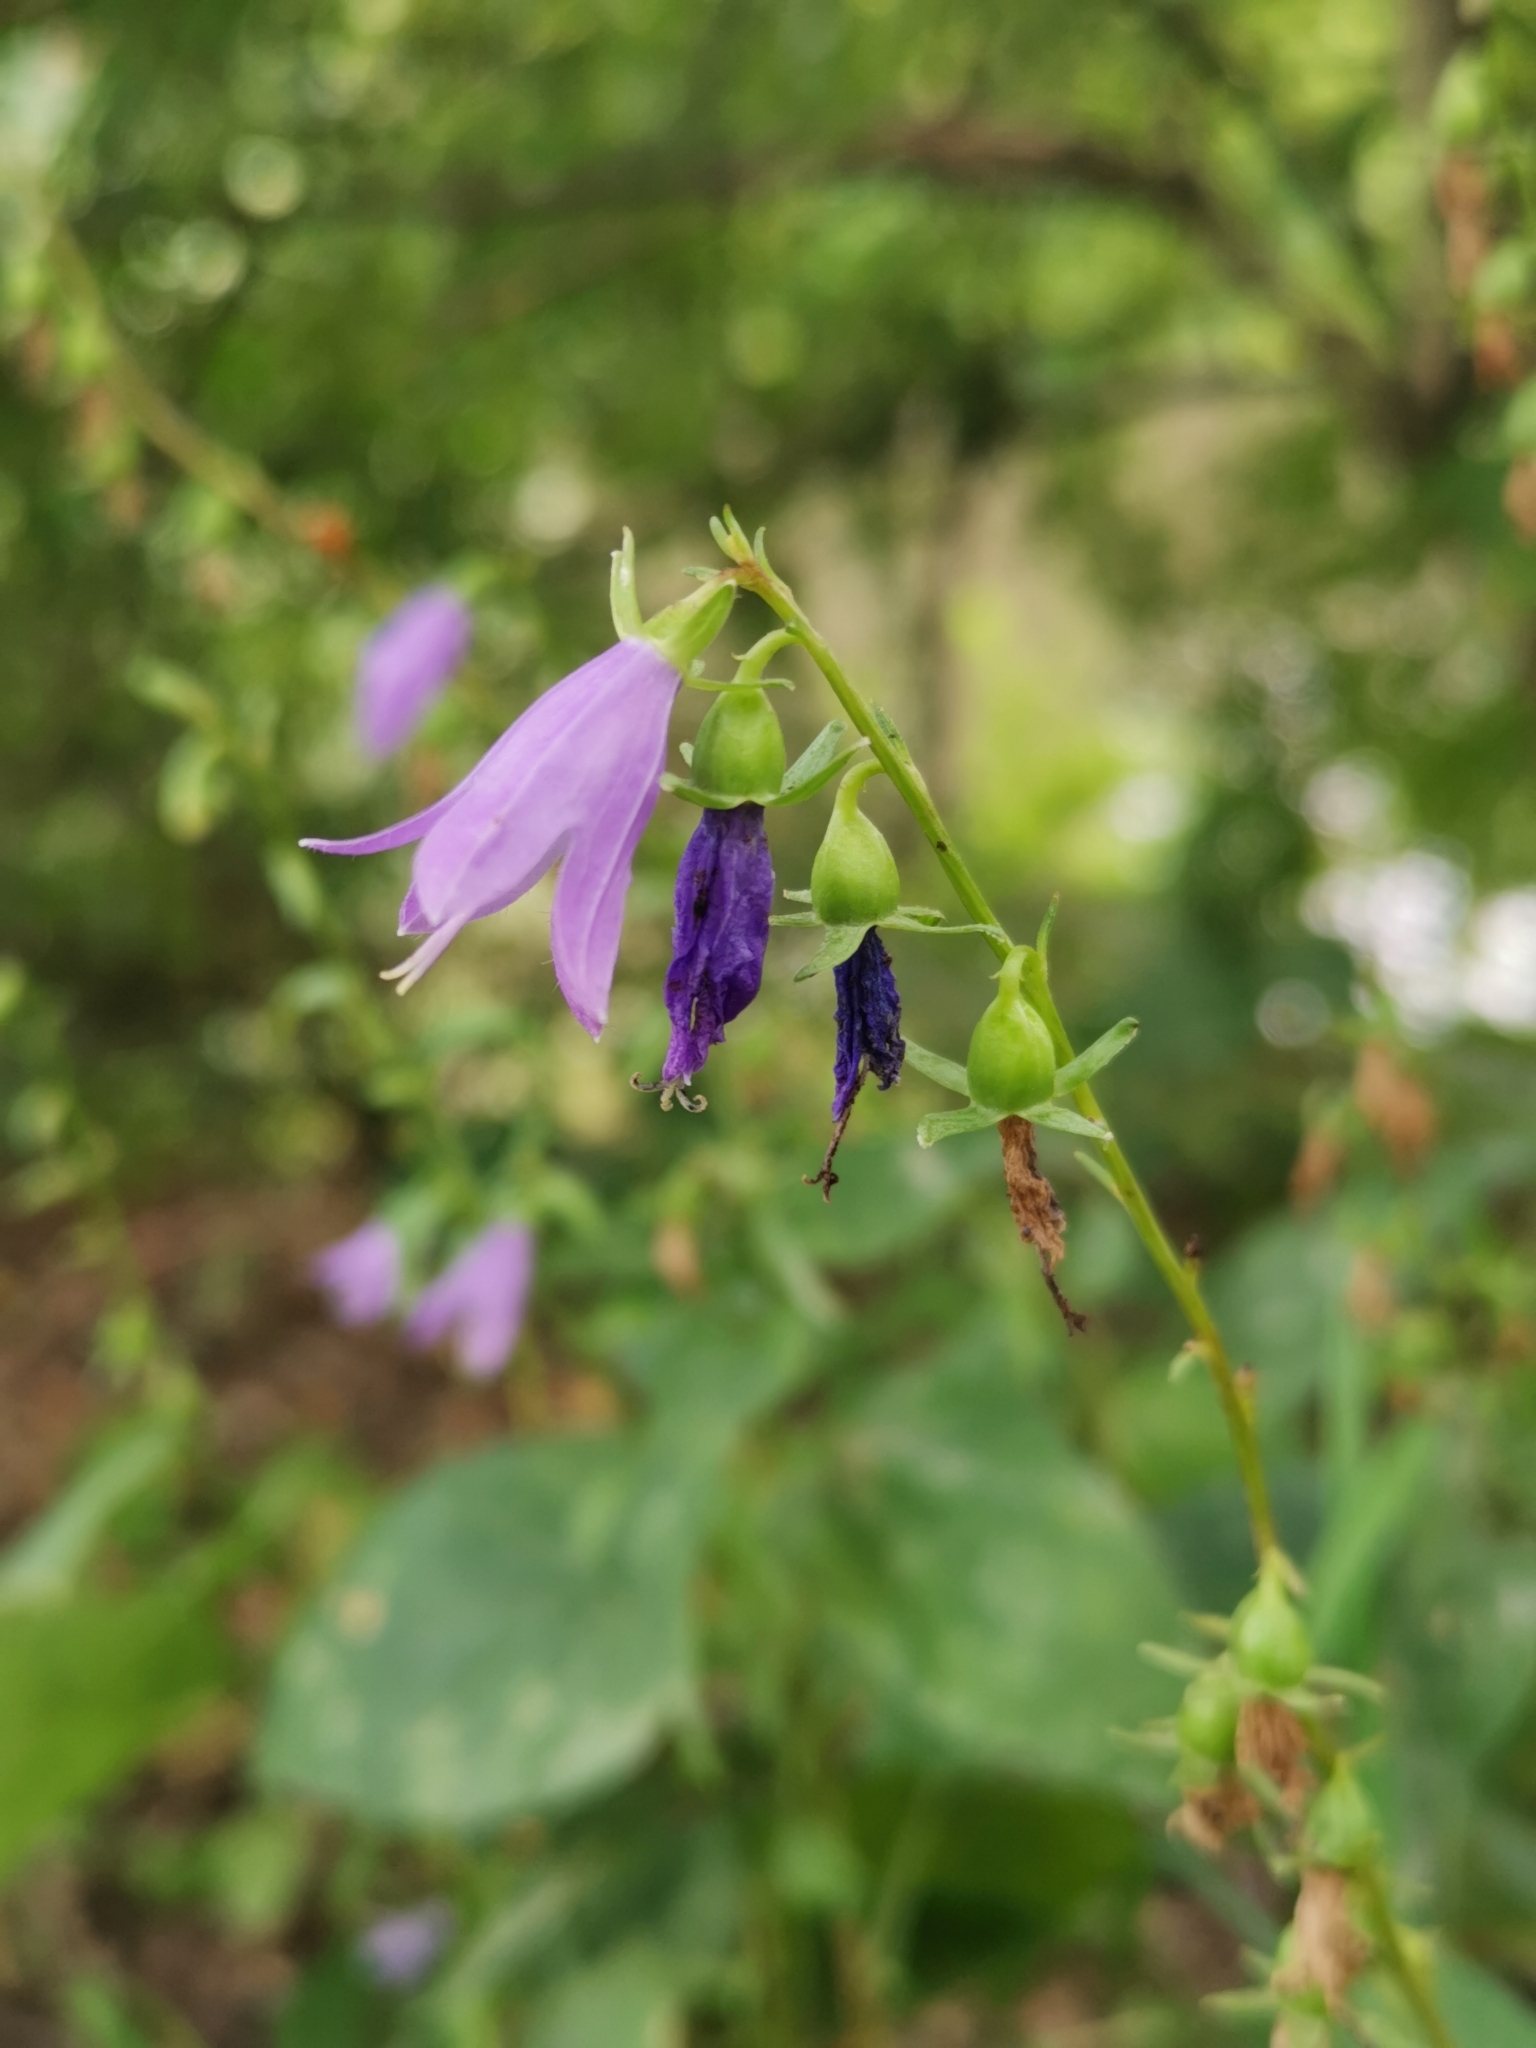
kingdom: Plantae
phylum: Tracheophyta
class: Magnoliopsida
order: Asterales
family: Campanulaceae
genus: Campanula
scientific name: Campanula rapunculoides
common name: Creeping bellflower
